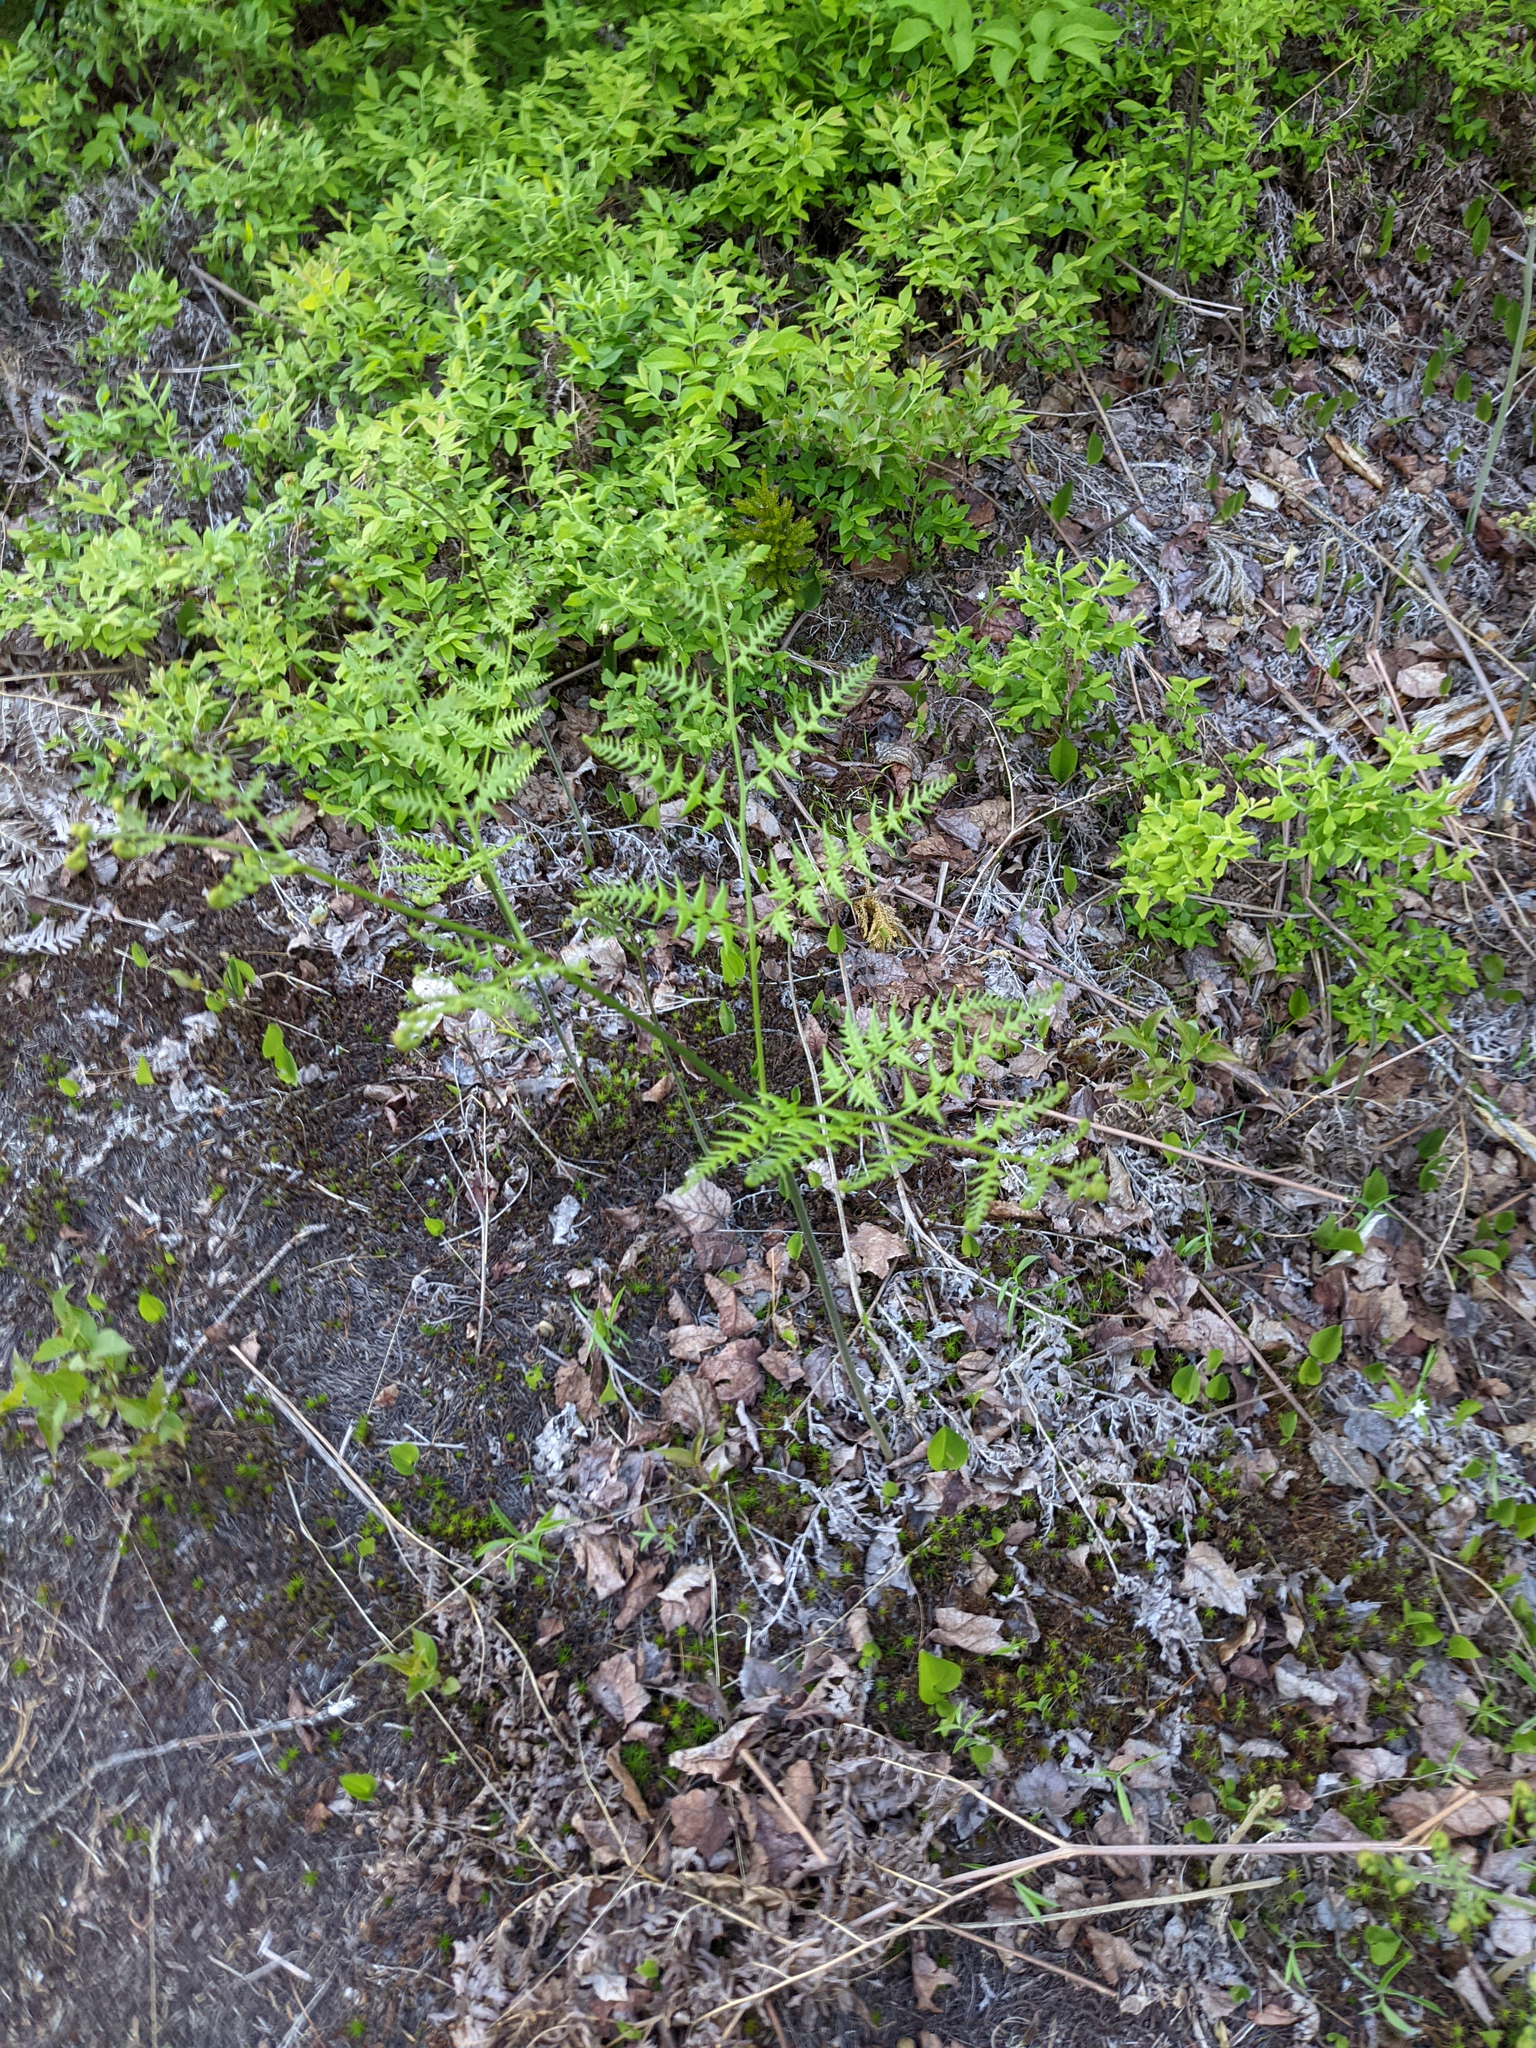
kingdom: Plantae
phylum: Tracheophyta
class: Polypodiopsida
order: Polypodiales
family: Dennstaedtiaceae
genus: Pteridium
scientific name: Pteridium aquilinum
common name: Bracken
